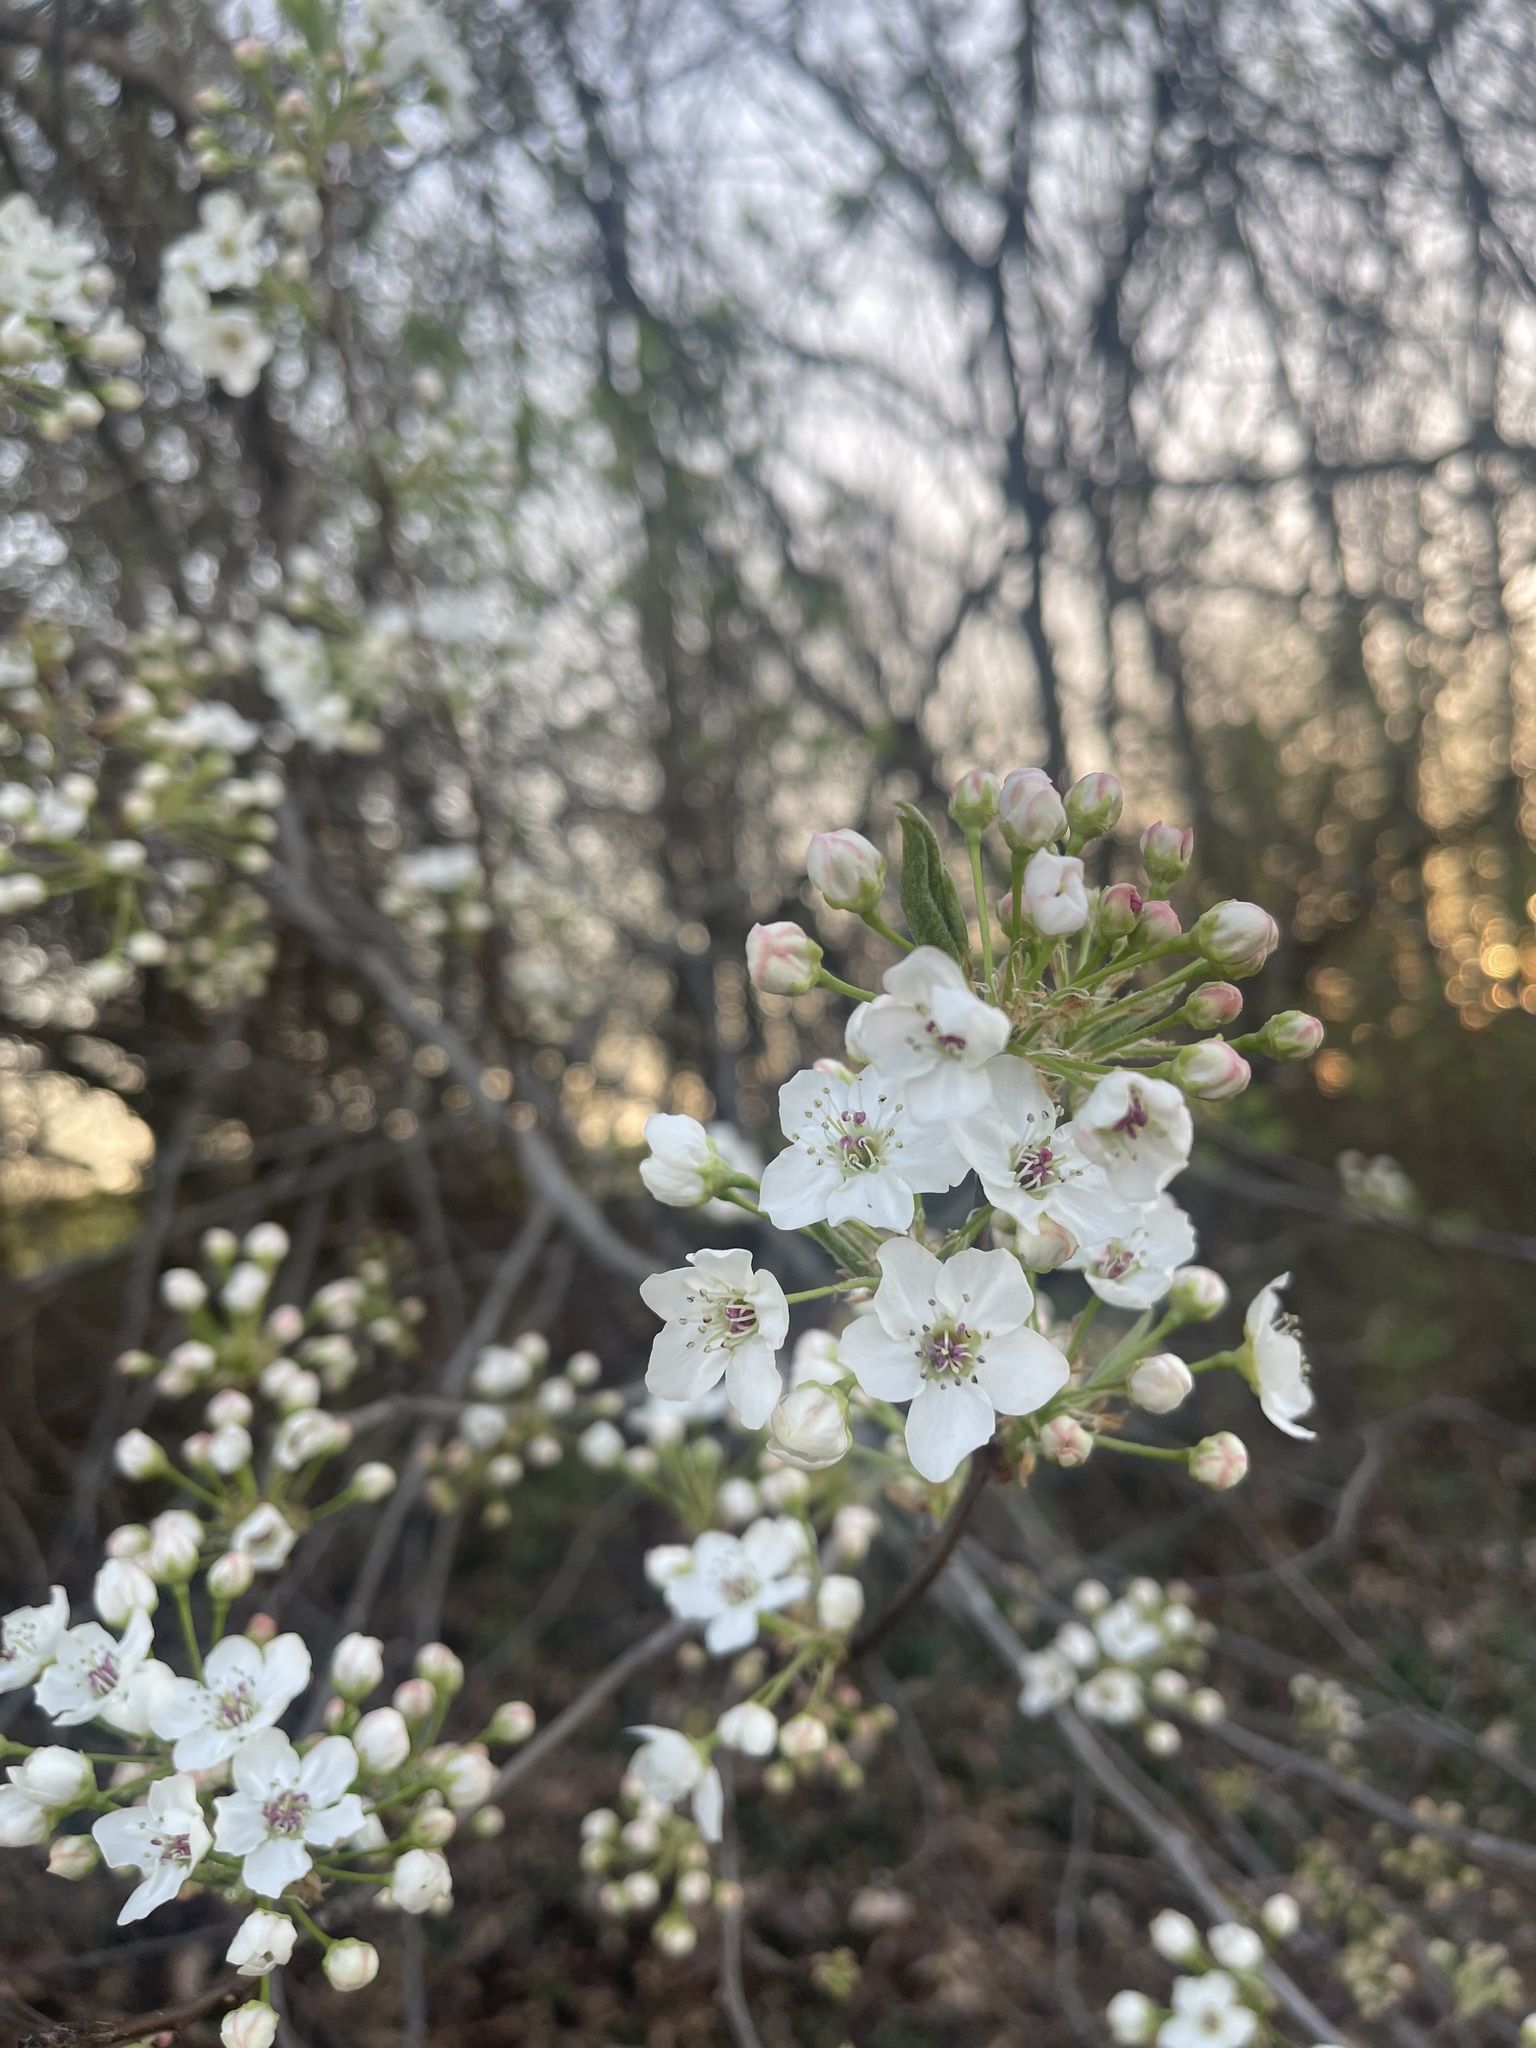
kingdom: Plantae
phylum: Tracheophyta
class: Magnoliopsida
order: Rosales
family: Rosaceae
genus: Pyrus
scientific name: Pyrus calleryana
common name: Callery pear
